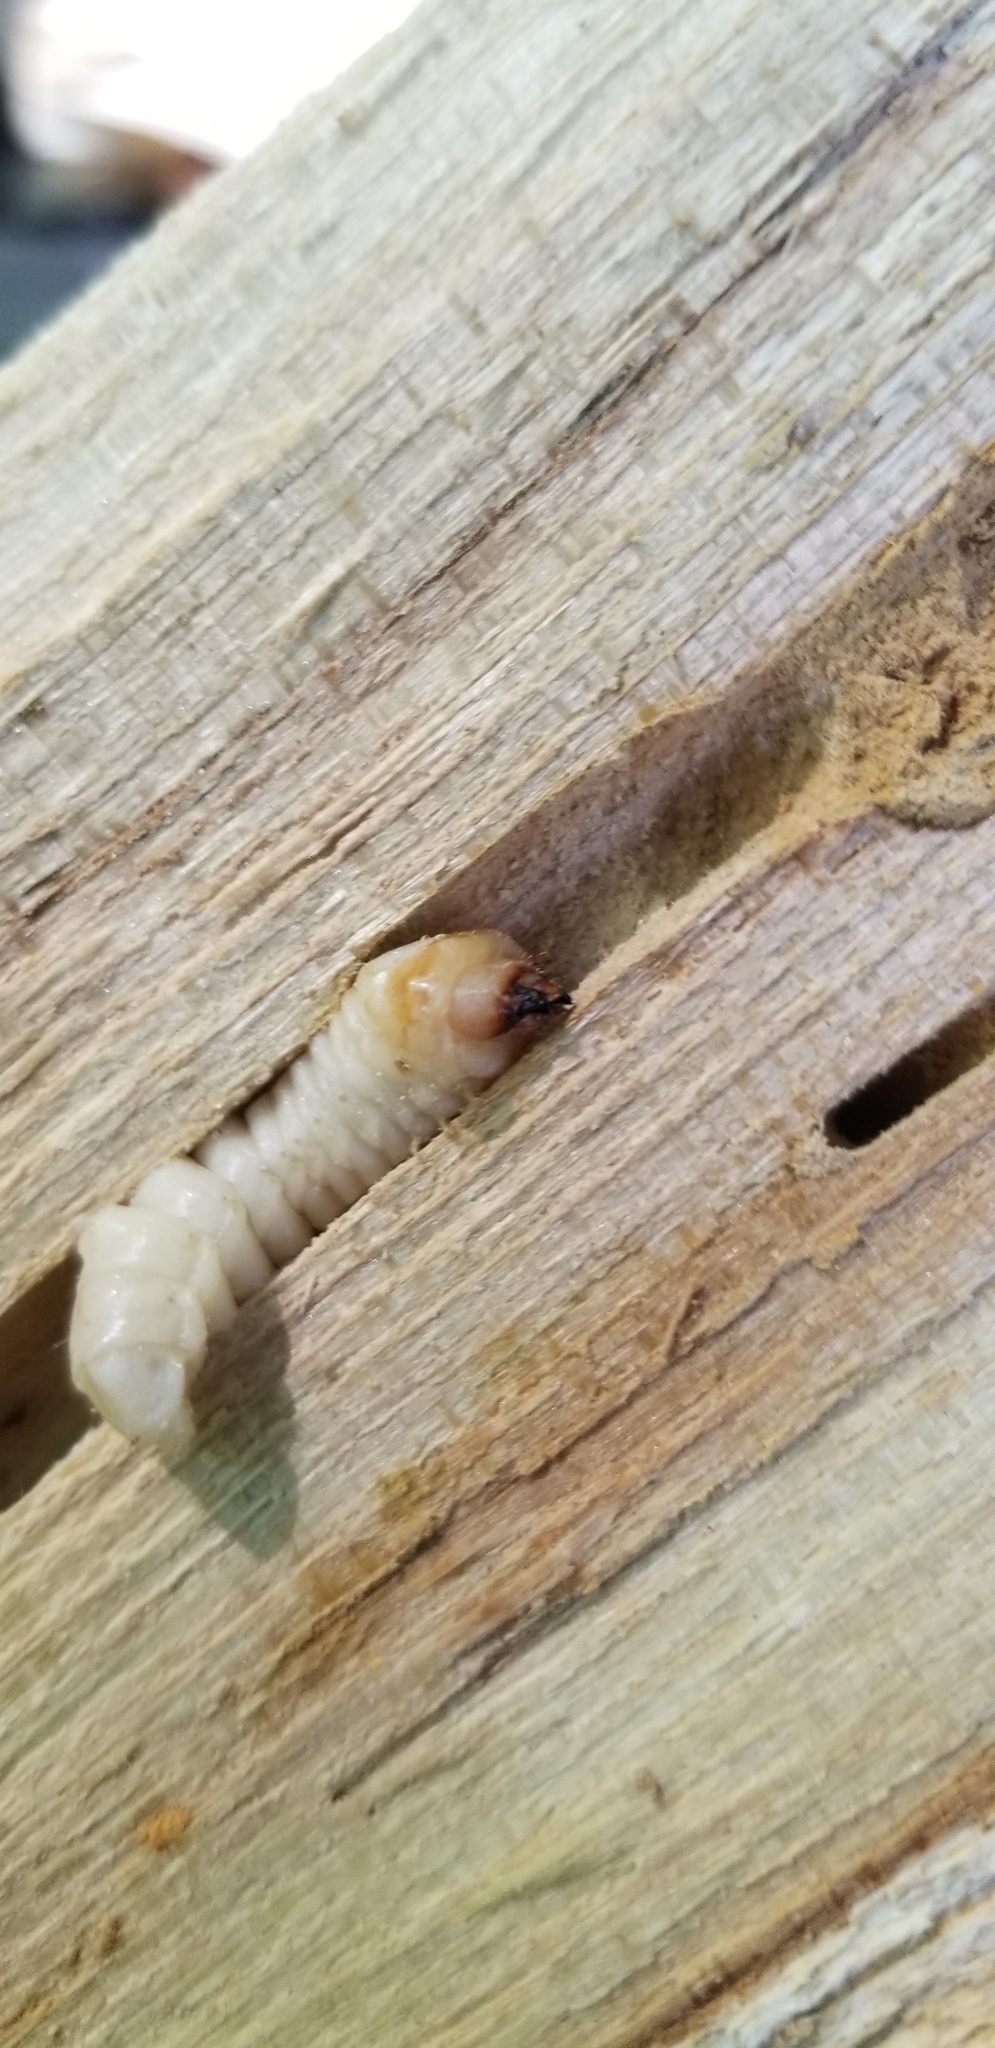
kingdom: Animalia
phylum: Arthropoda
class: Insecta
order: Coleoptera
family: Cerambycidae
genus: Megacyllene
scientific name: Megacyllene robiniae
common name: Locust borer
